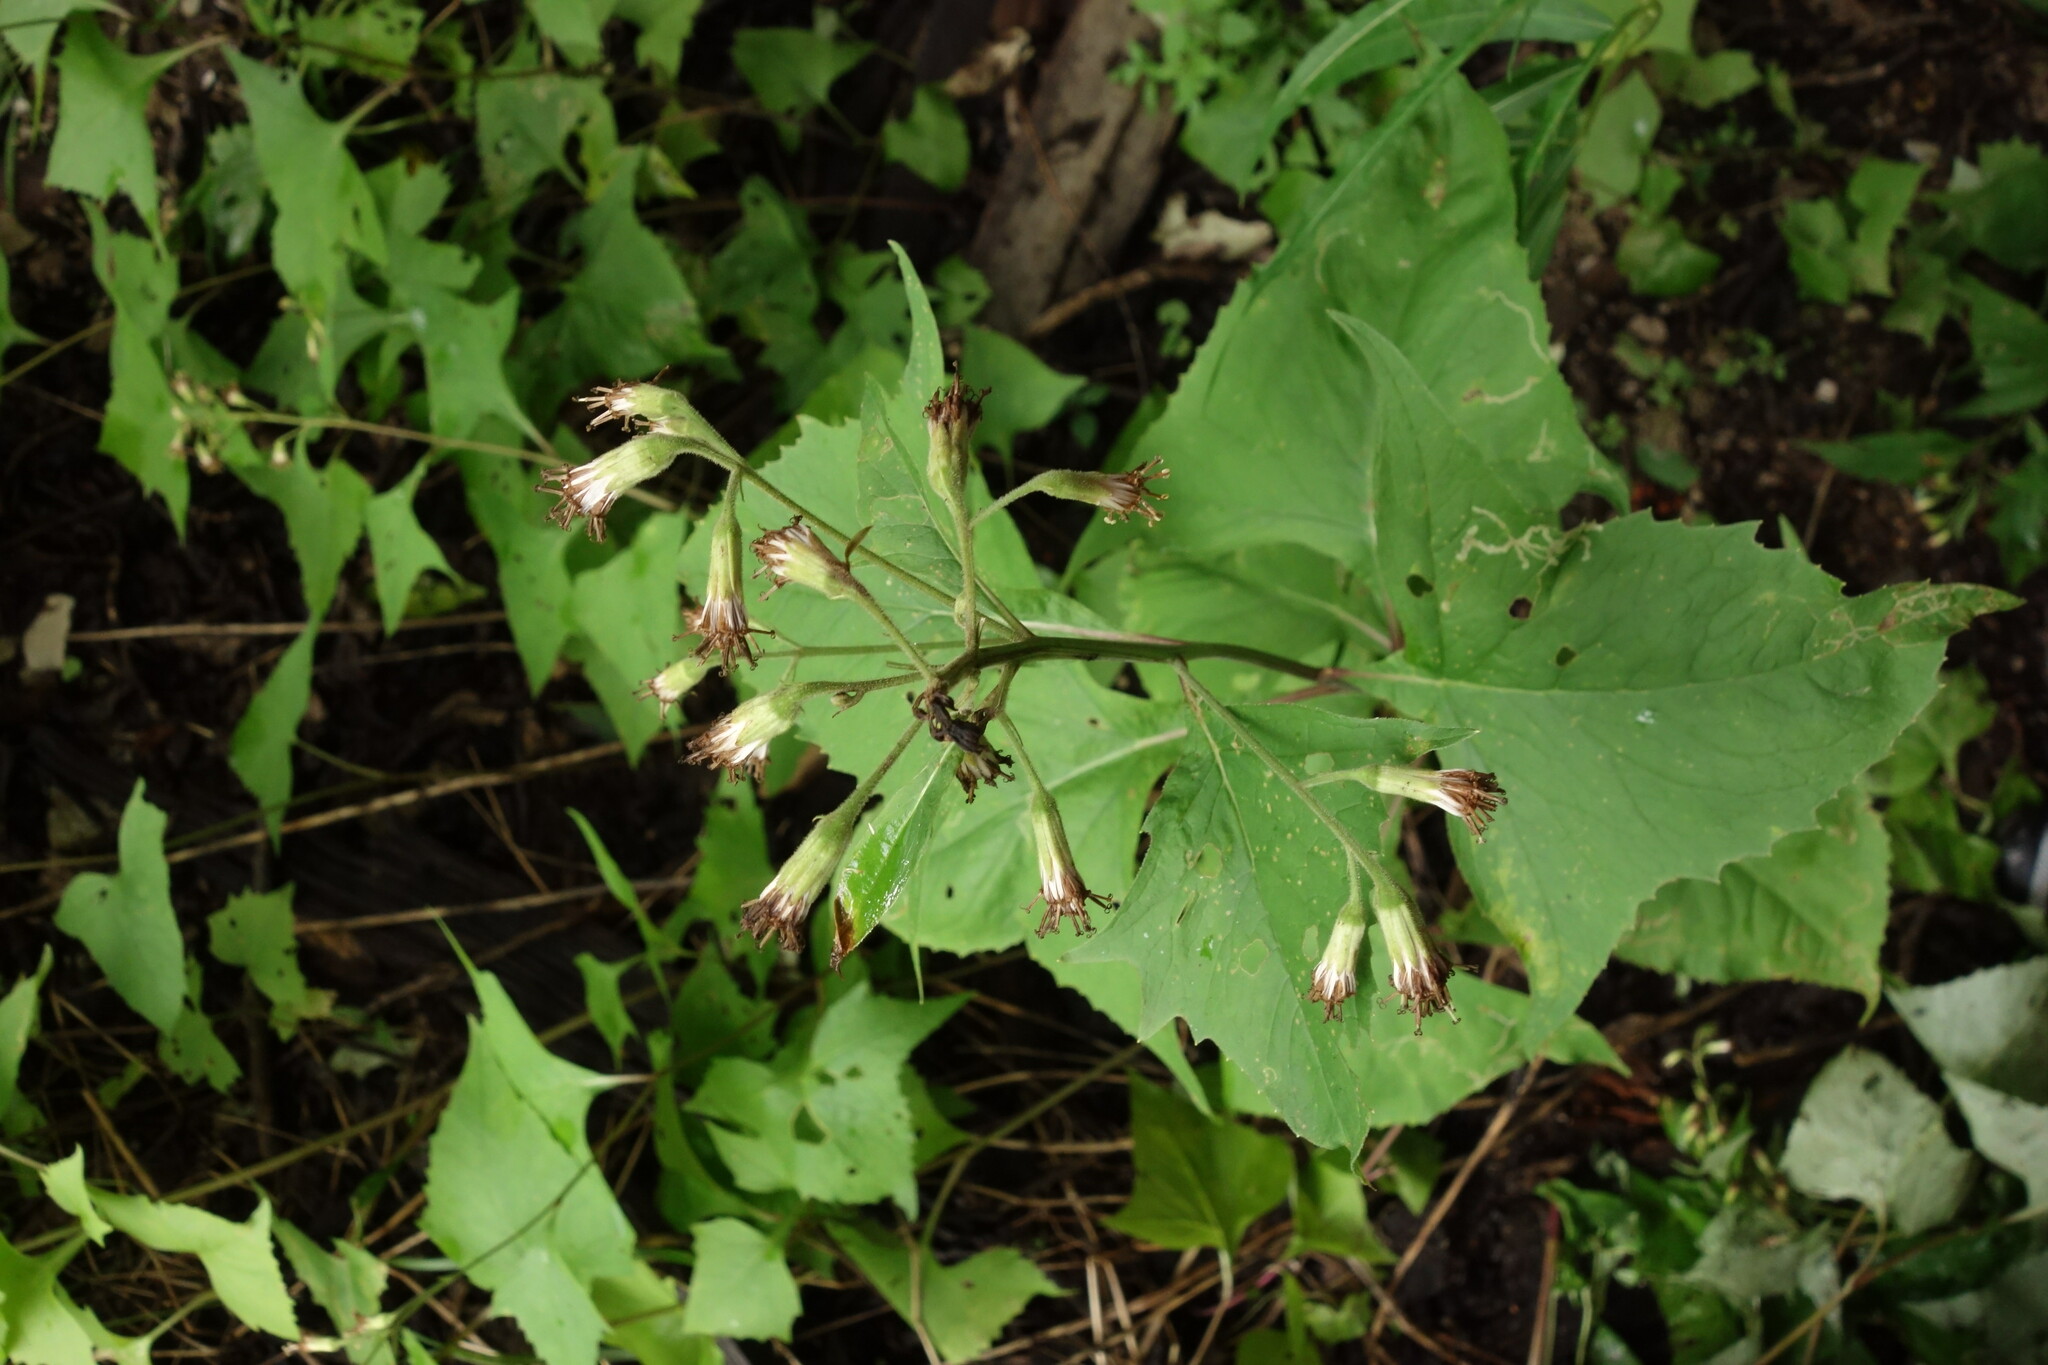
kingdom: Plantae
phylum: Tracheophyta
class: Magnoliopsida
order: Asterales
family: Asteraceae
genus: Parasenecio
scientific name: Parasenecio hastatus
